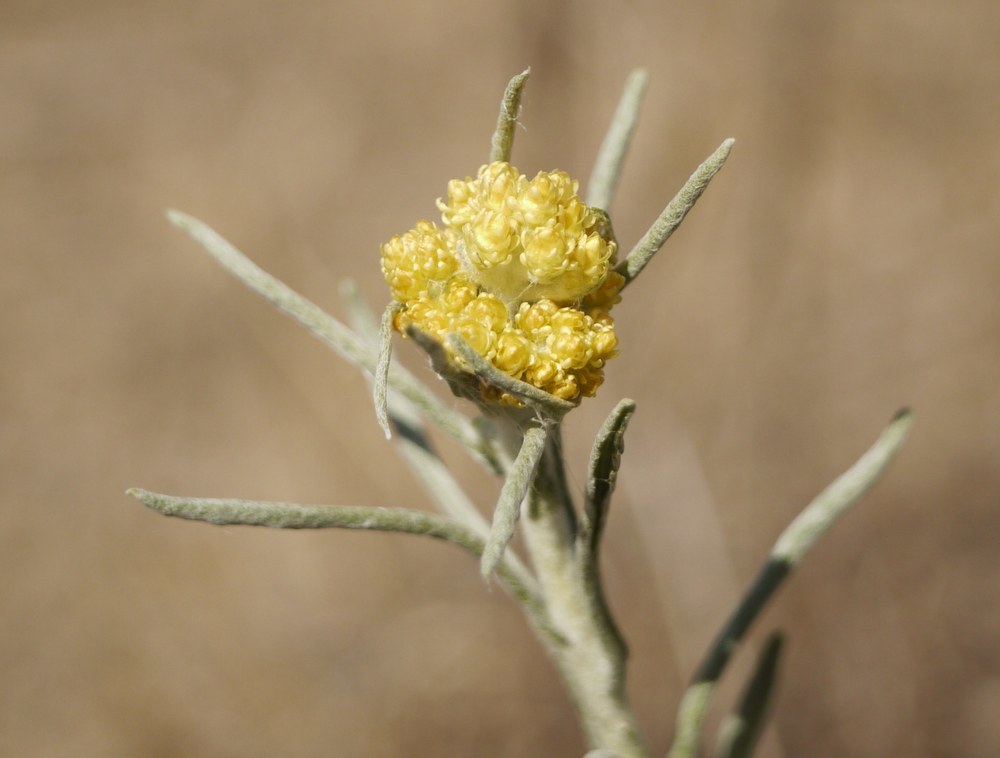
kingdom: Plantae
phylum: Tracheophyta
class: Magnoliopsida
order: Asterales
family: Asteraceae
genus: Helichrysum
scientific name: Helichrysum arenarium
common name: Strawflower
